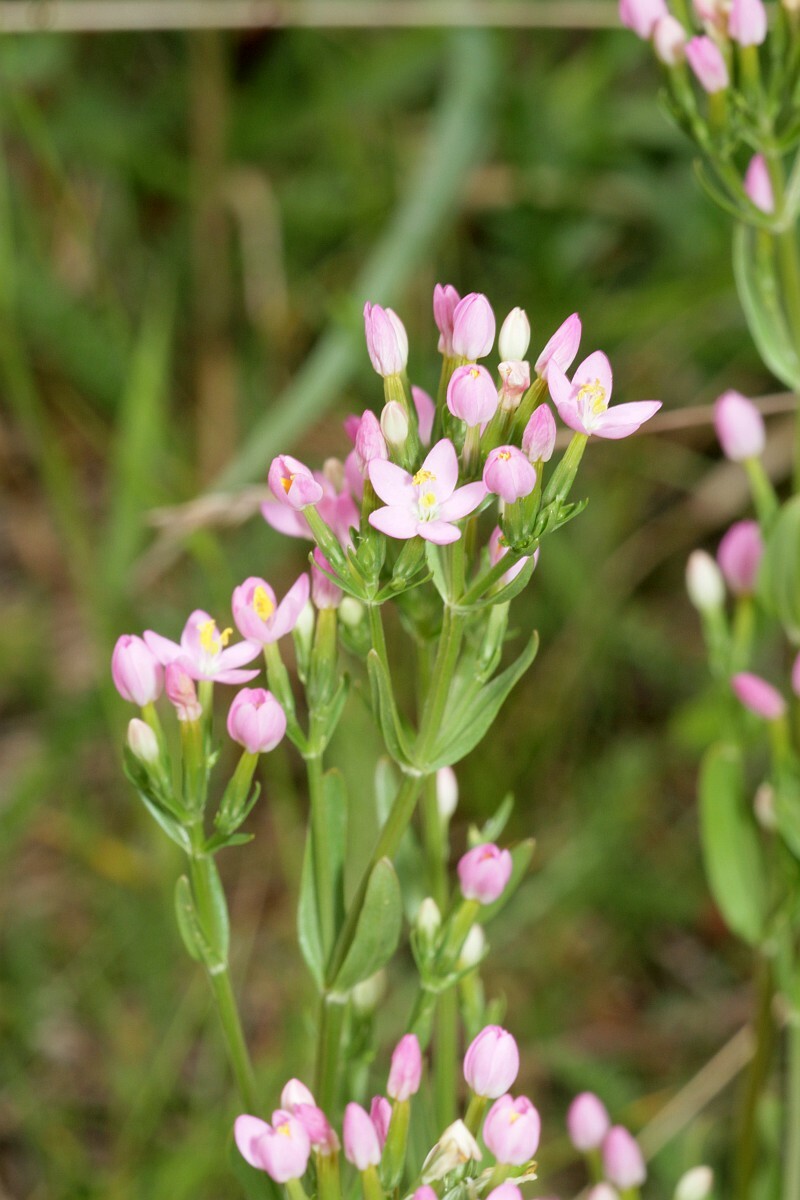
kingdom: Plantae
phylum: Tracheophyta
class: Magnoliopsida
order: Gentianales
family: Gentianaceae
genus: Centaurium
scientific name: Centaurium erythraea
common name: Common centaury
